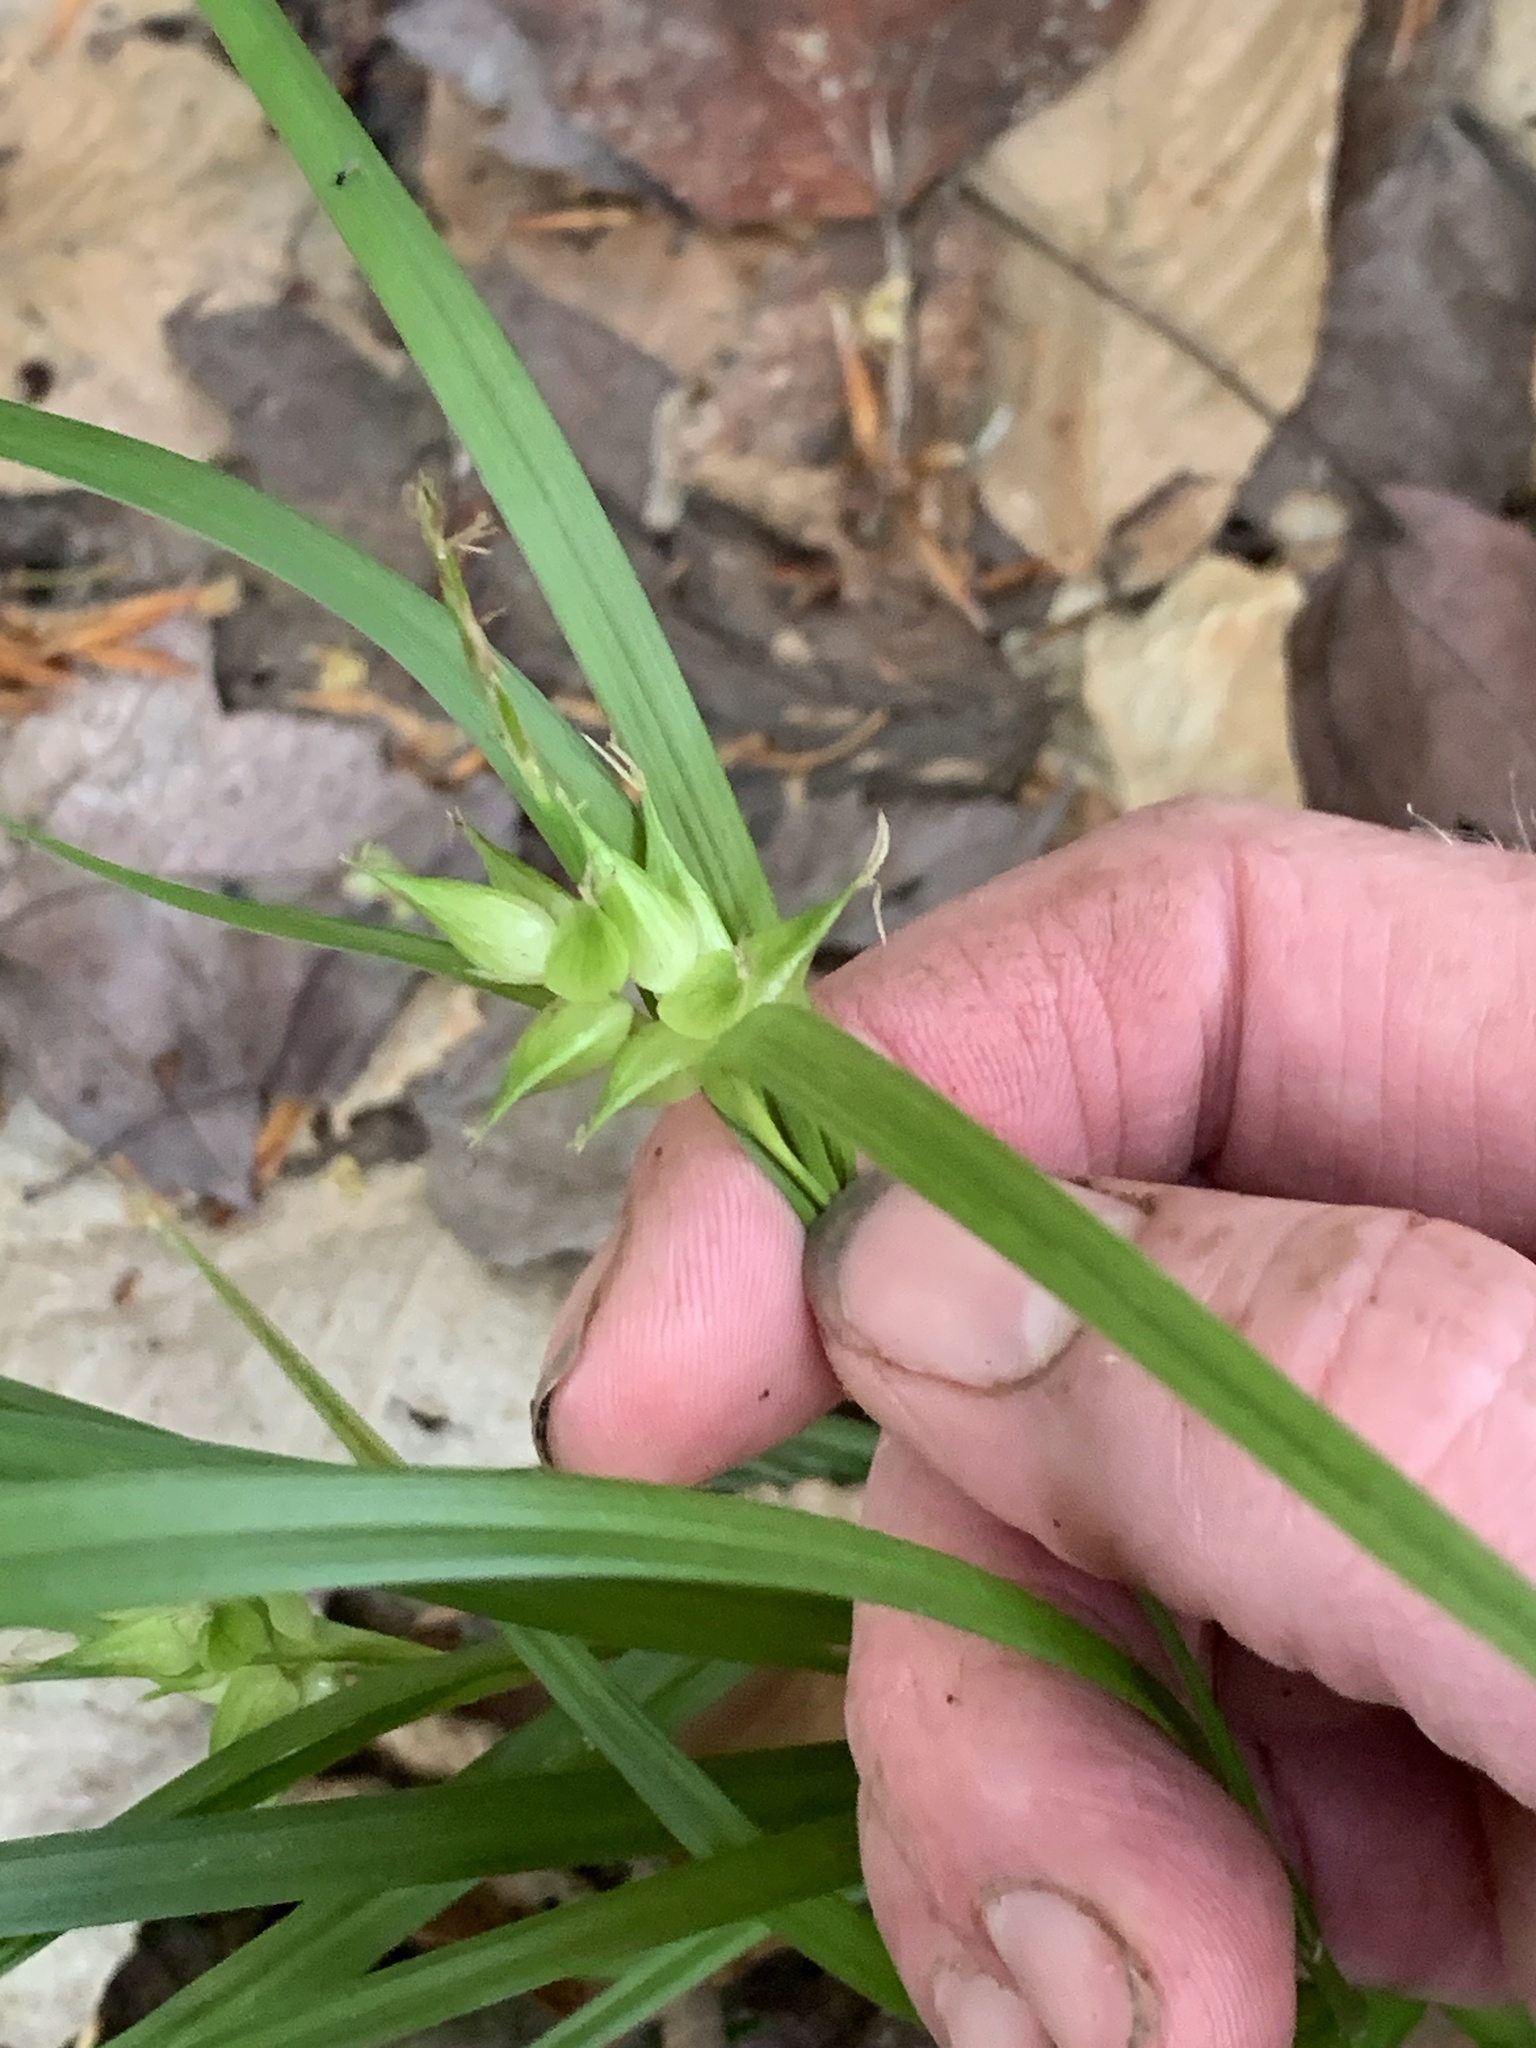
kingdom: Plantae
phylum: Tracheophyta
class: Liliopsida
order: Poales
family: Cyperaceae
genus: Carex
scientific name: Carex intumescens
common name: Greater bladder sedge
